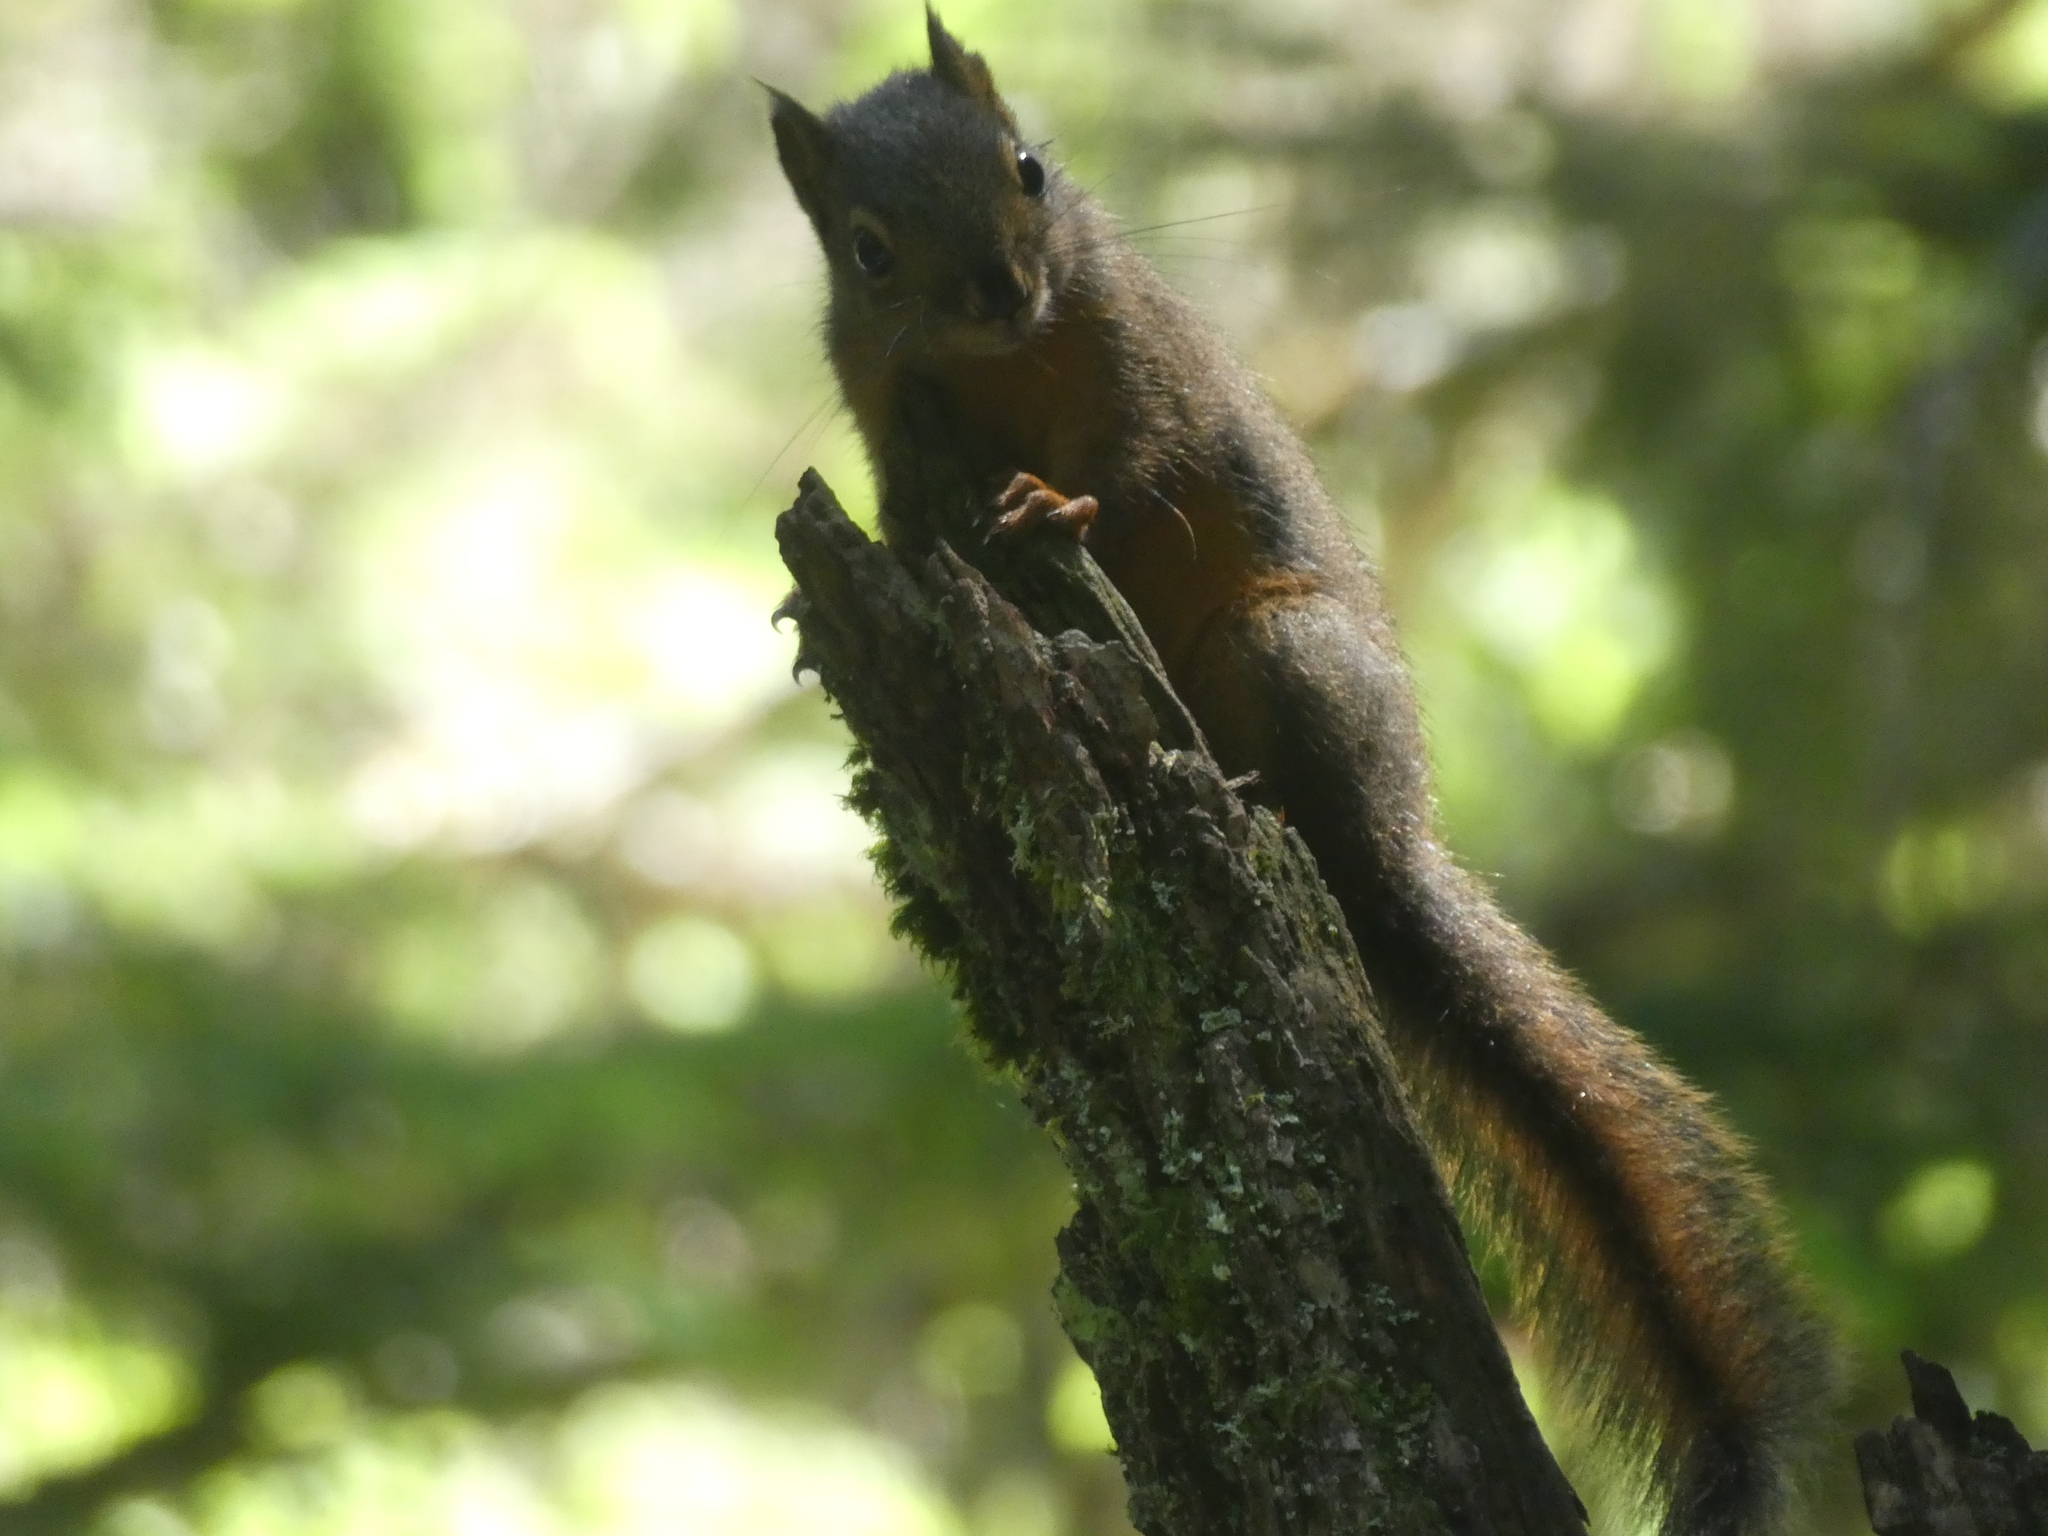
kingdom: Animalia
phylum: Chordata
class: Mammalia
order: Rodentia
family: Sciuridae
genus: Tamiasciurus
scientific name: Tamiasciurus douglasii
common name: Douglas's squirrel
